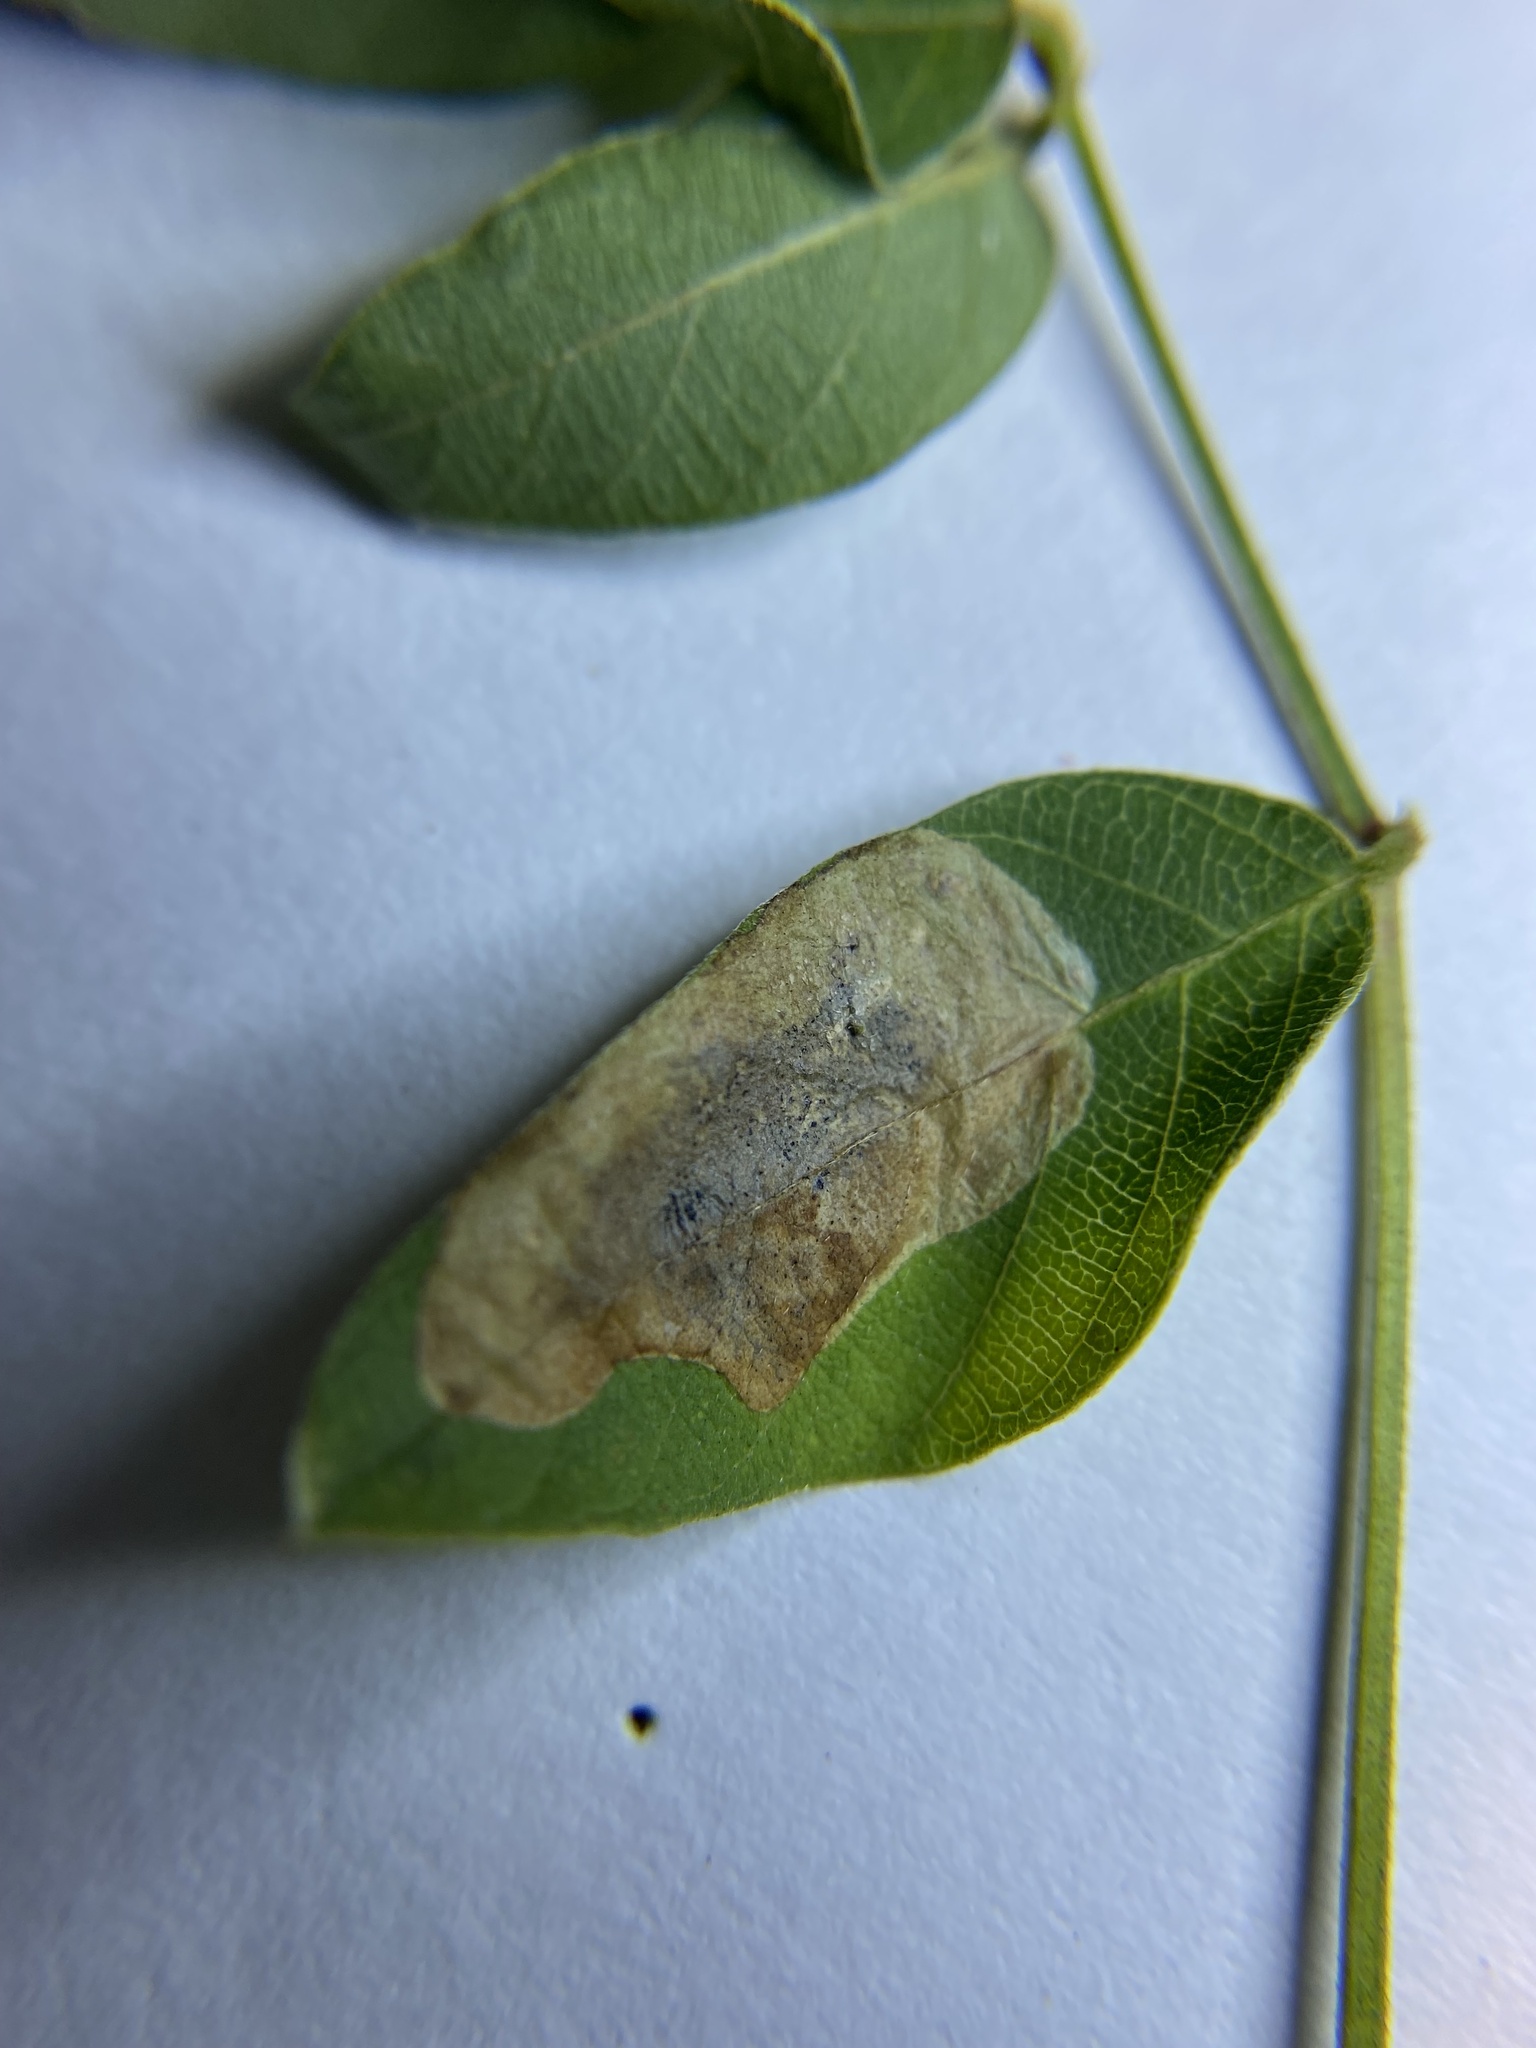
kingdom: Animalia
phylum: Arthropoda
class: Insecta
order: Lepidoptera
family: Gracillariidae
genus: Anarsioses
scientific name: Anarsioses aberrans
